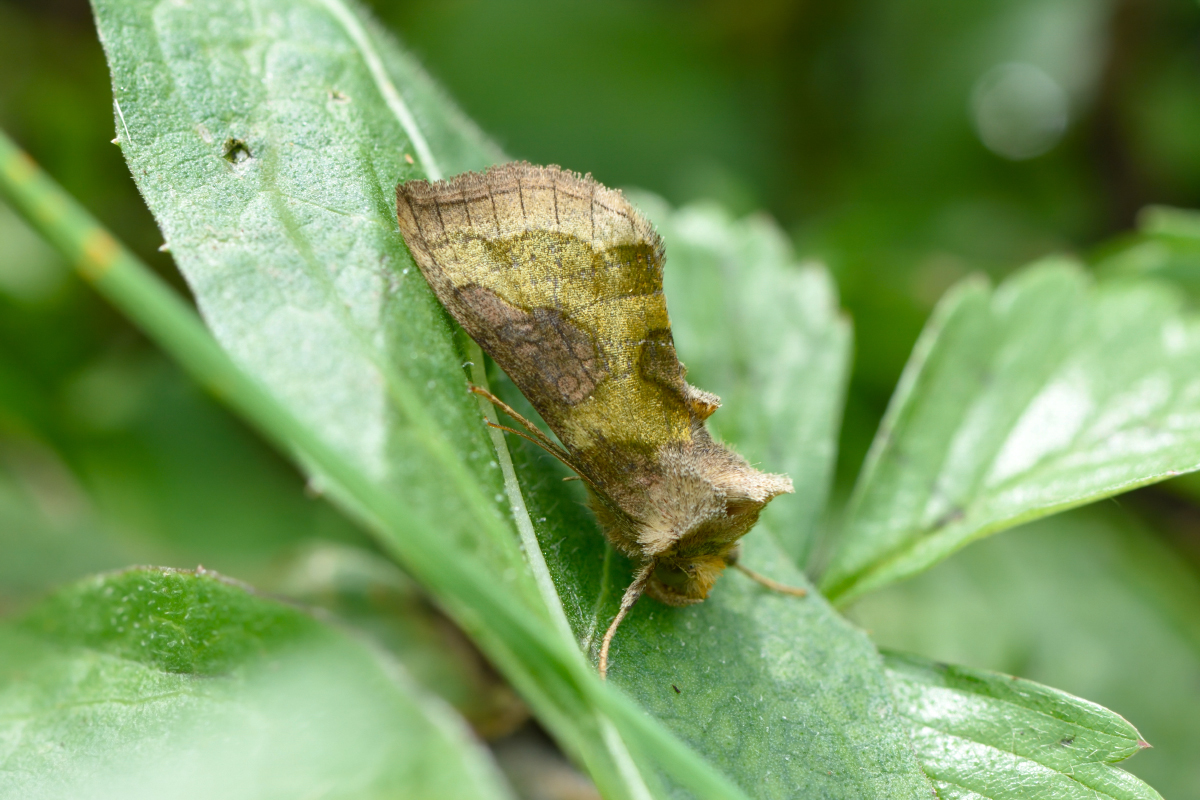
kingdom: Animalia
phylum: Arthropoda
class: Insecta
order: Lepidoptera
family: Noctuidae
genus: Diachrysia
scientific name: Diachrysia stenochrysis
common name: Cryptic burnished brass
